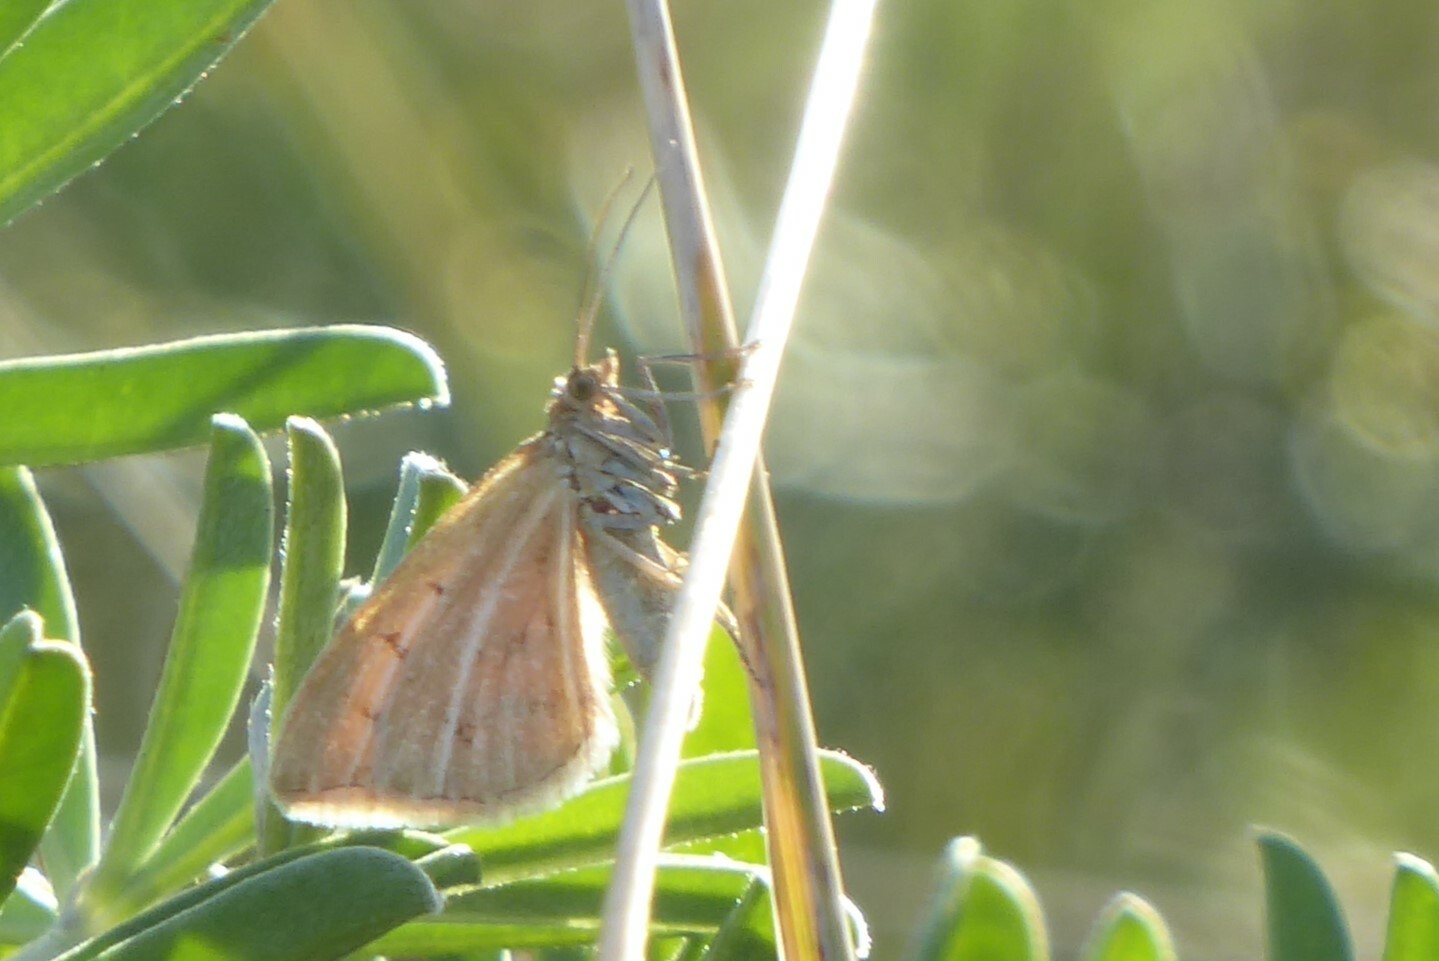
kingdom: Animalia
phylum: Arthropoda
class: Insecta
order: Lepidoptera
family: Geometridae
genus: Asaphodes
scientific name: Asaphodes abrogata
